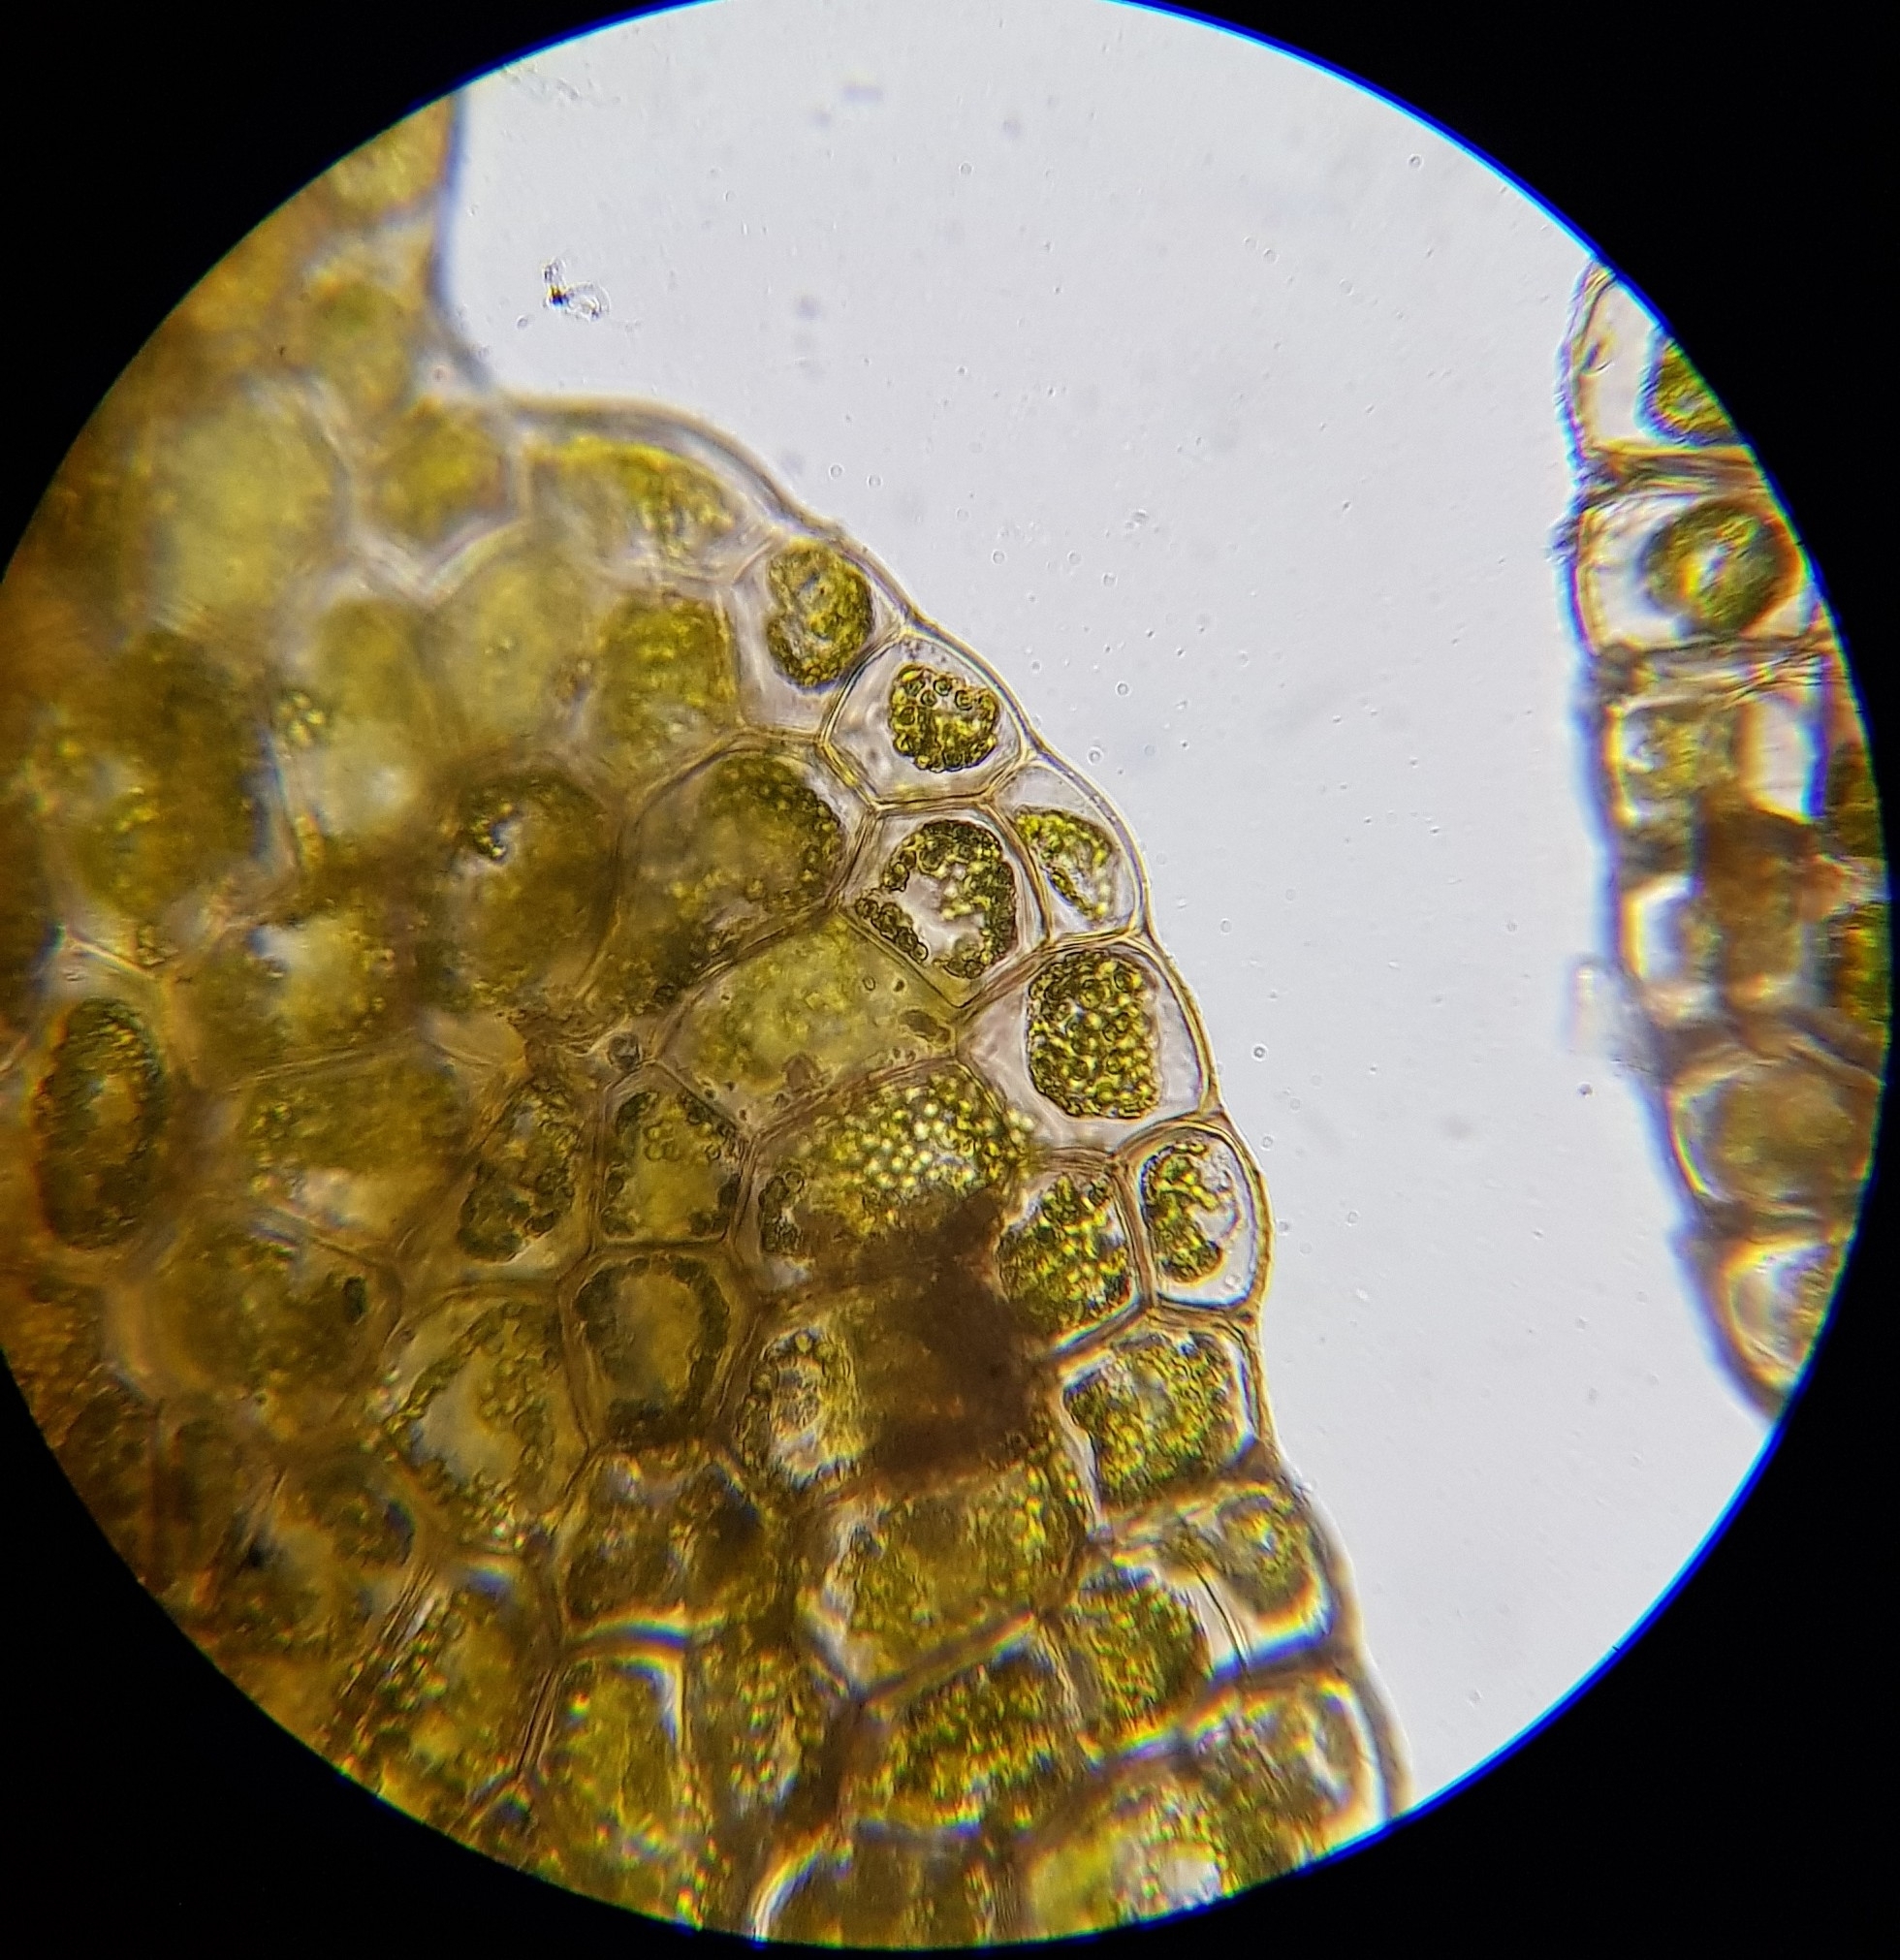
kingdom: Plantae
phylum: Marchantiophyta
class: Jungermanniopsida
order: Metzgeriales
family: Aneuraceae
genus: Riccardia
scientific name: Riccardia multifida
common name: Delicate germanderwort
